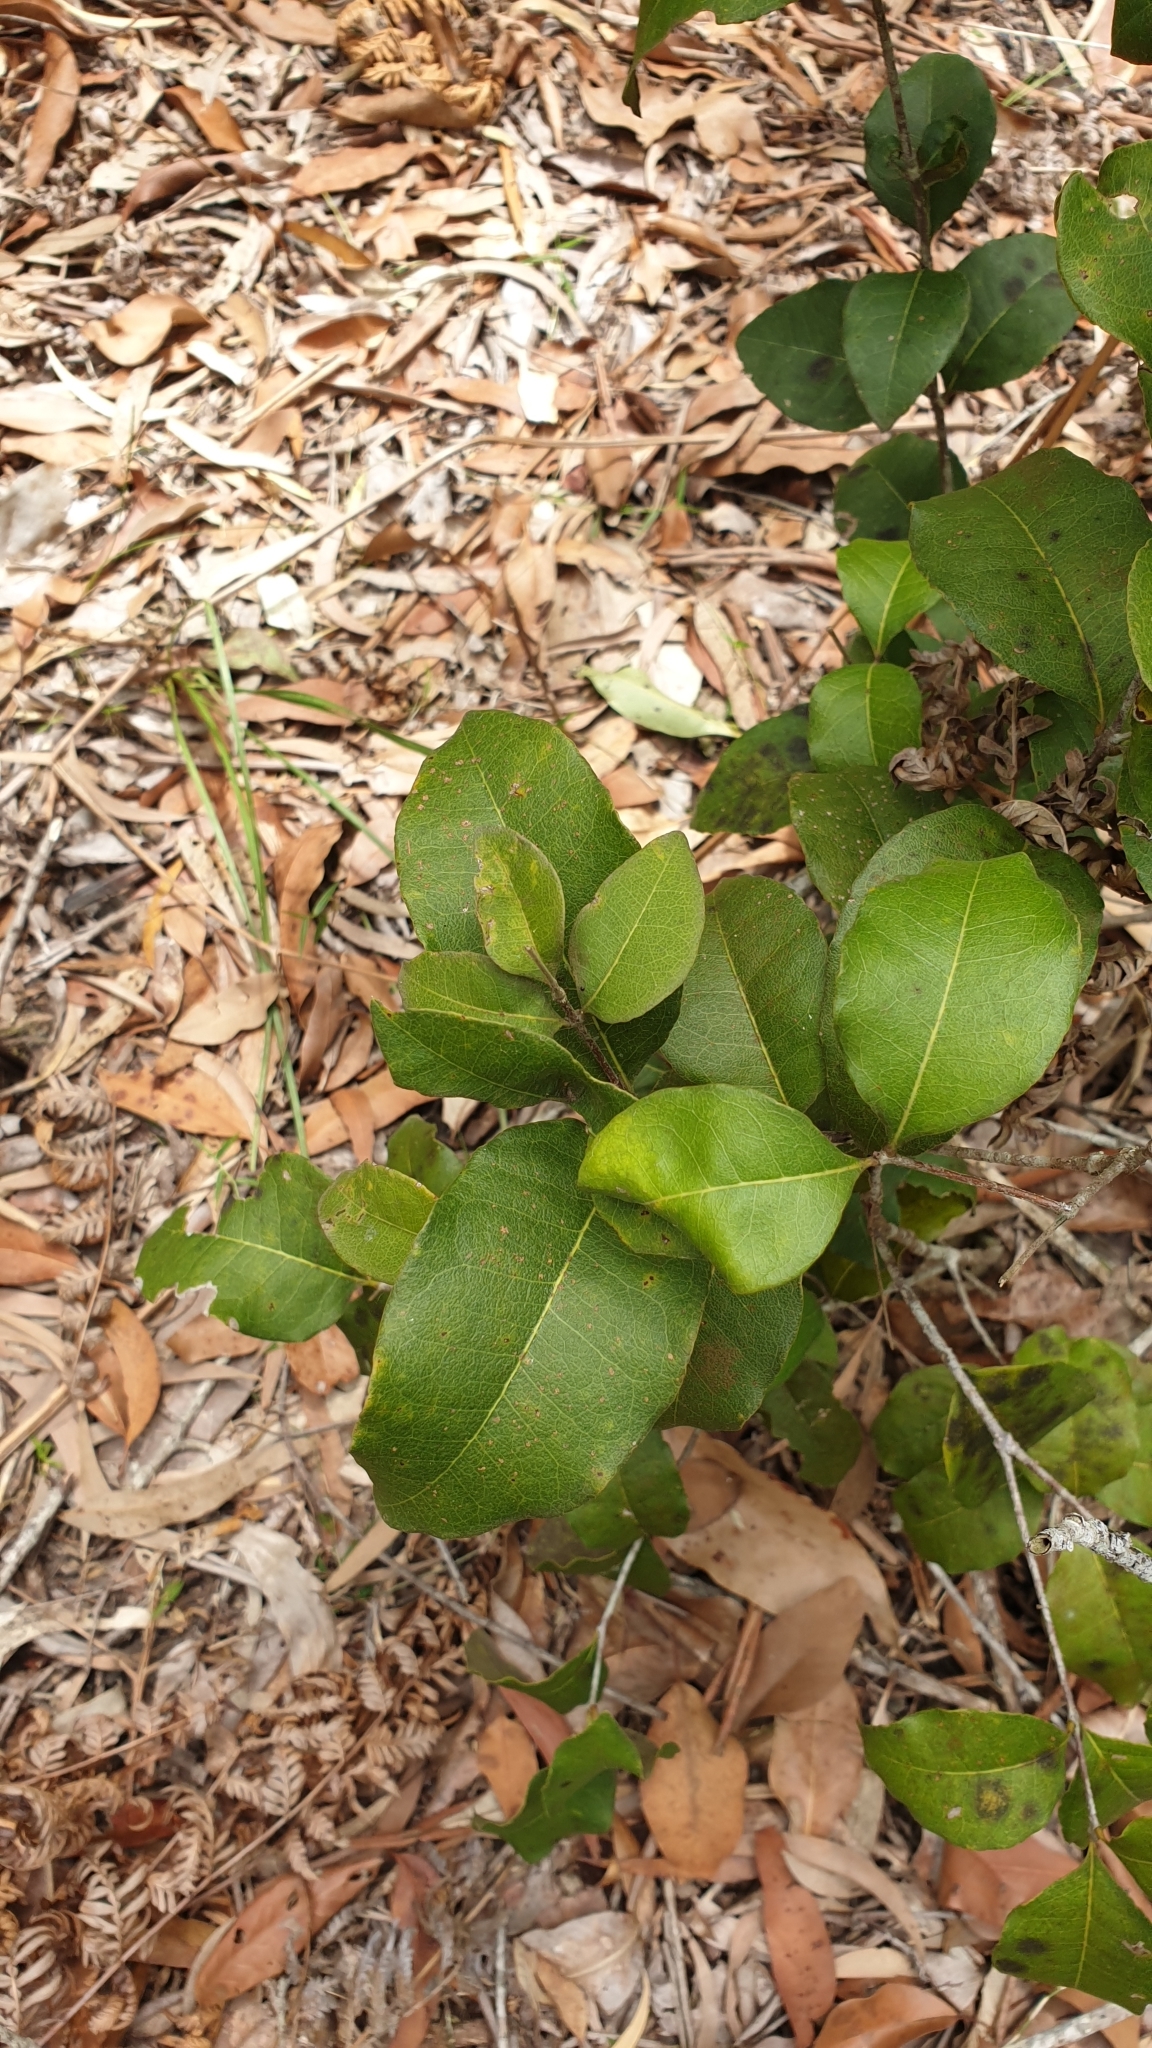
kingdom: Plantae
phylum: Tracheophyta
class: Magnoliopsida
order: Lamiales
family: Oleaceae
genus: Notelaea
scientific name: Notelaea ovata
